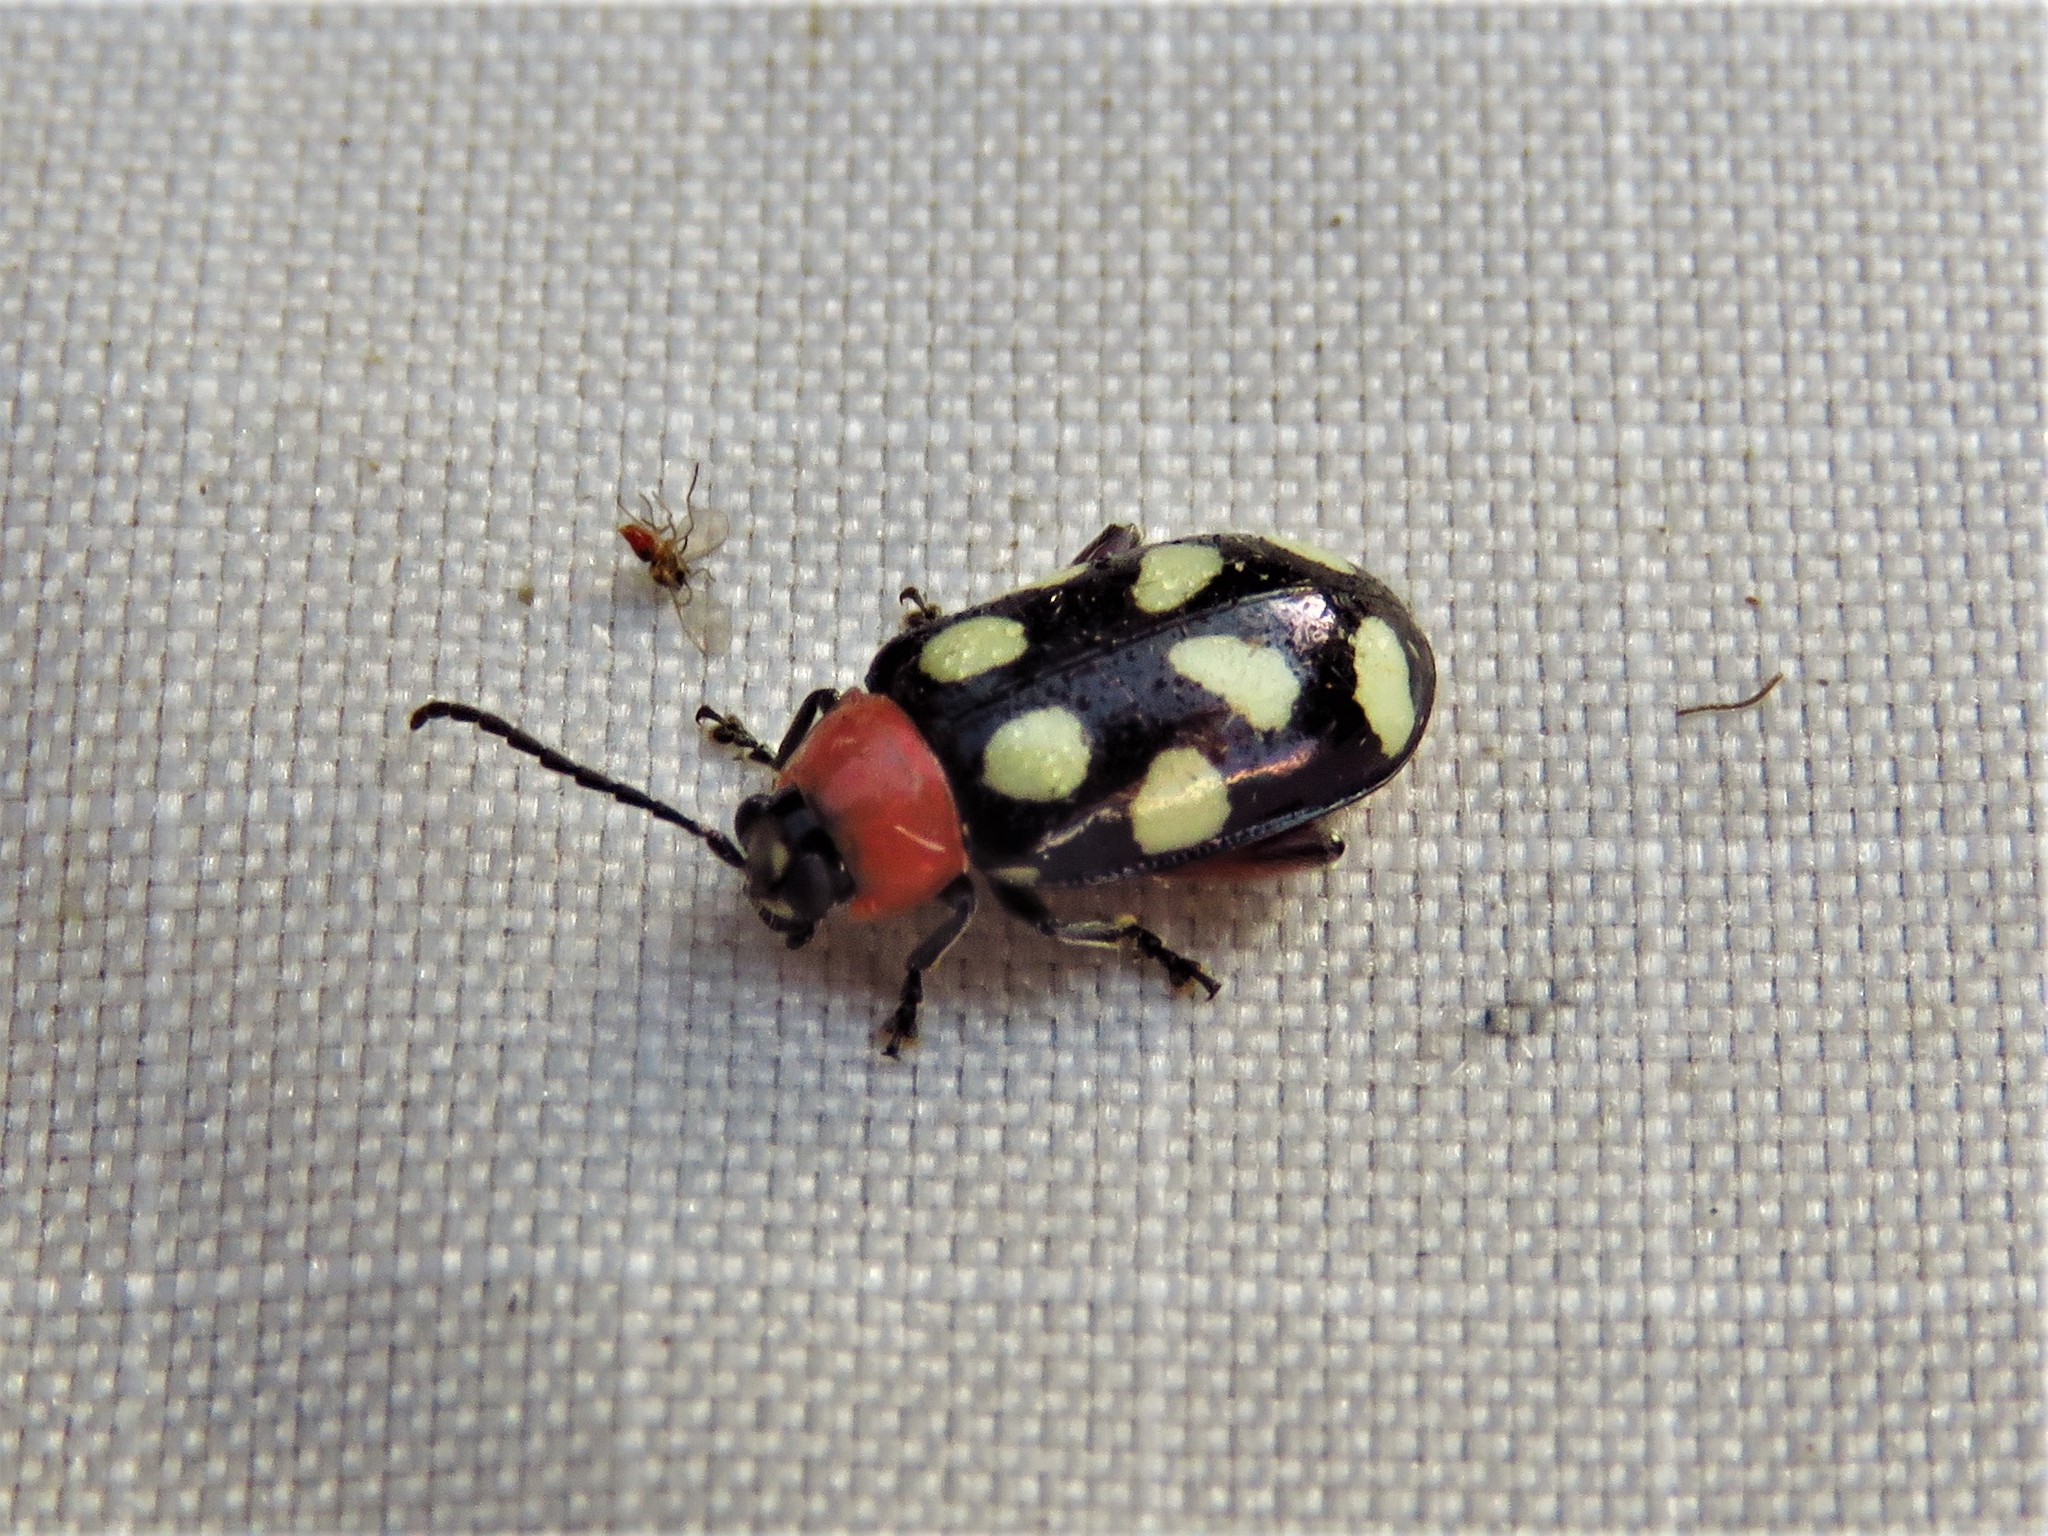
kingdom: Animalia
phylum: Arthropoda
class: Insecta
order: Coleoptera
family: Chrysomelidae
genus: Omophoita
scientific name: Omophoita cyanipennis
